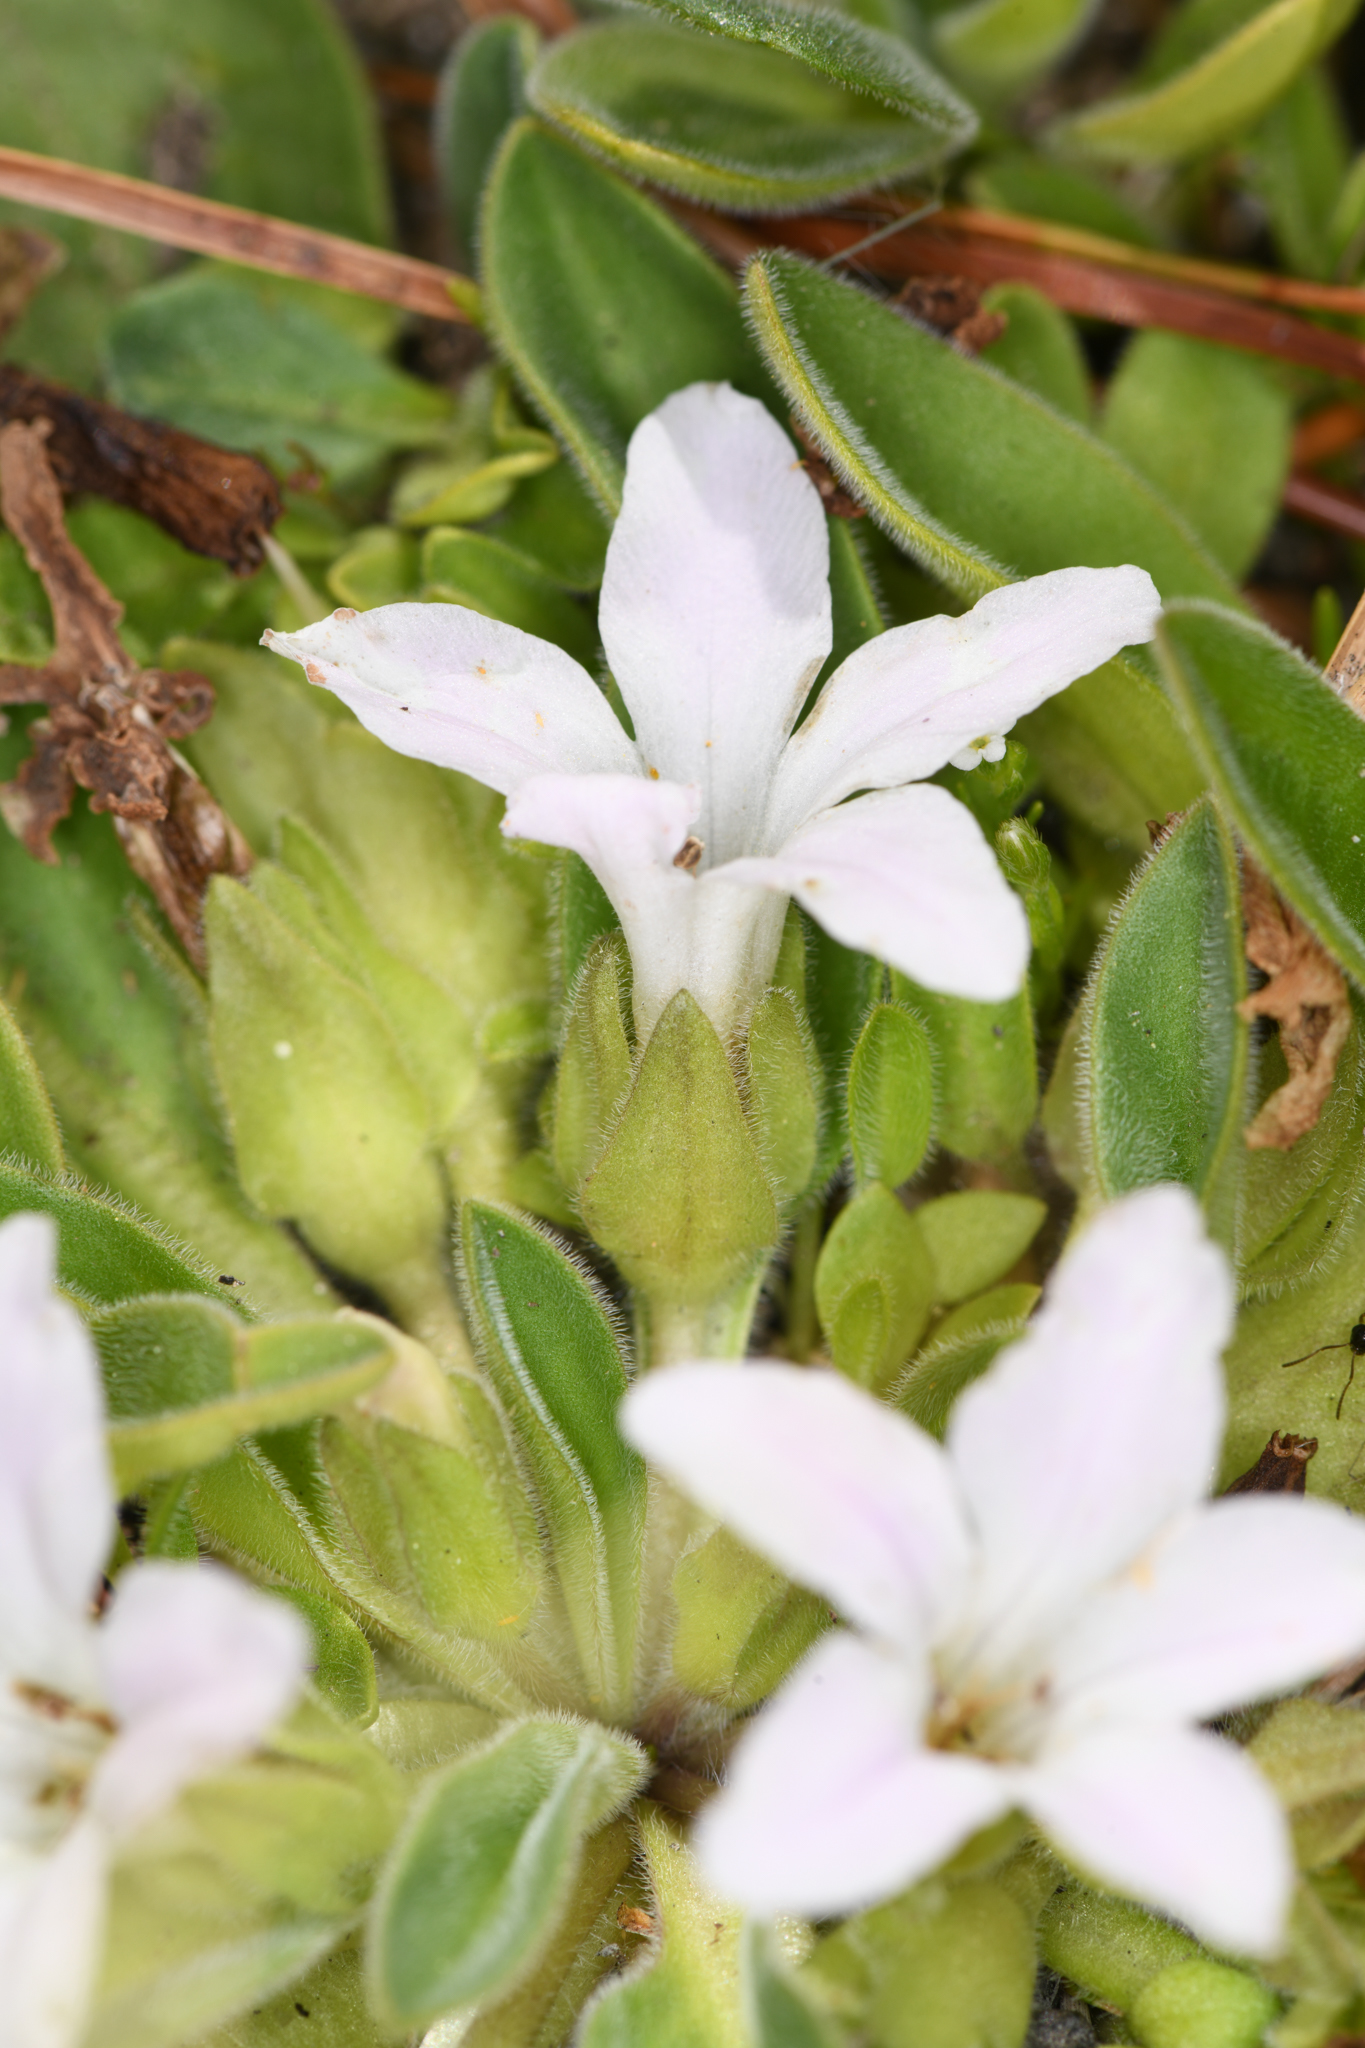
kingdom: Plantae
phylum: Tracheophyta
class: Magnoliopsida
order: Boraginales
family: Hydrophyllaceae
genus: Hesperochiron
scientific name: Hesperochiron californicus
